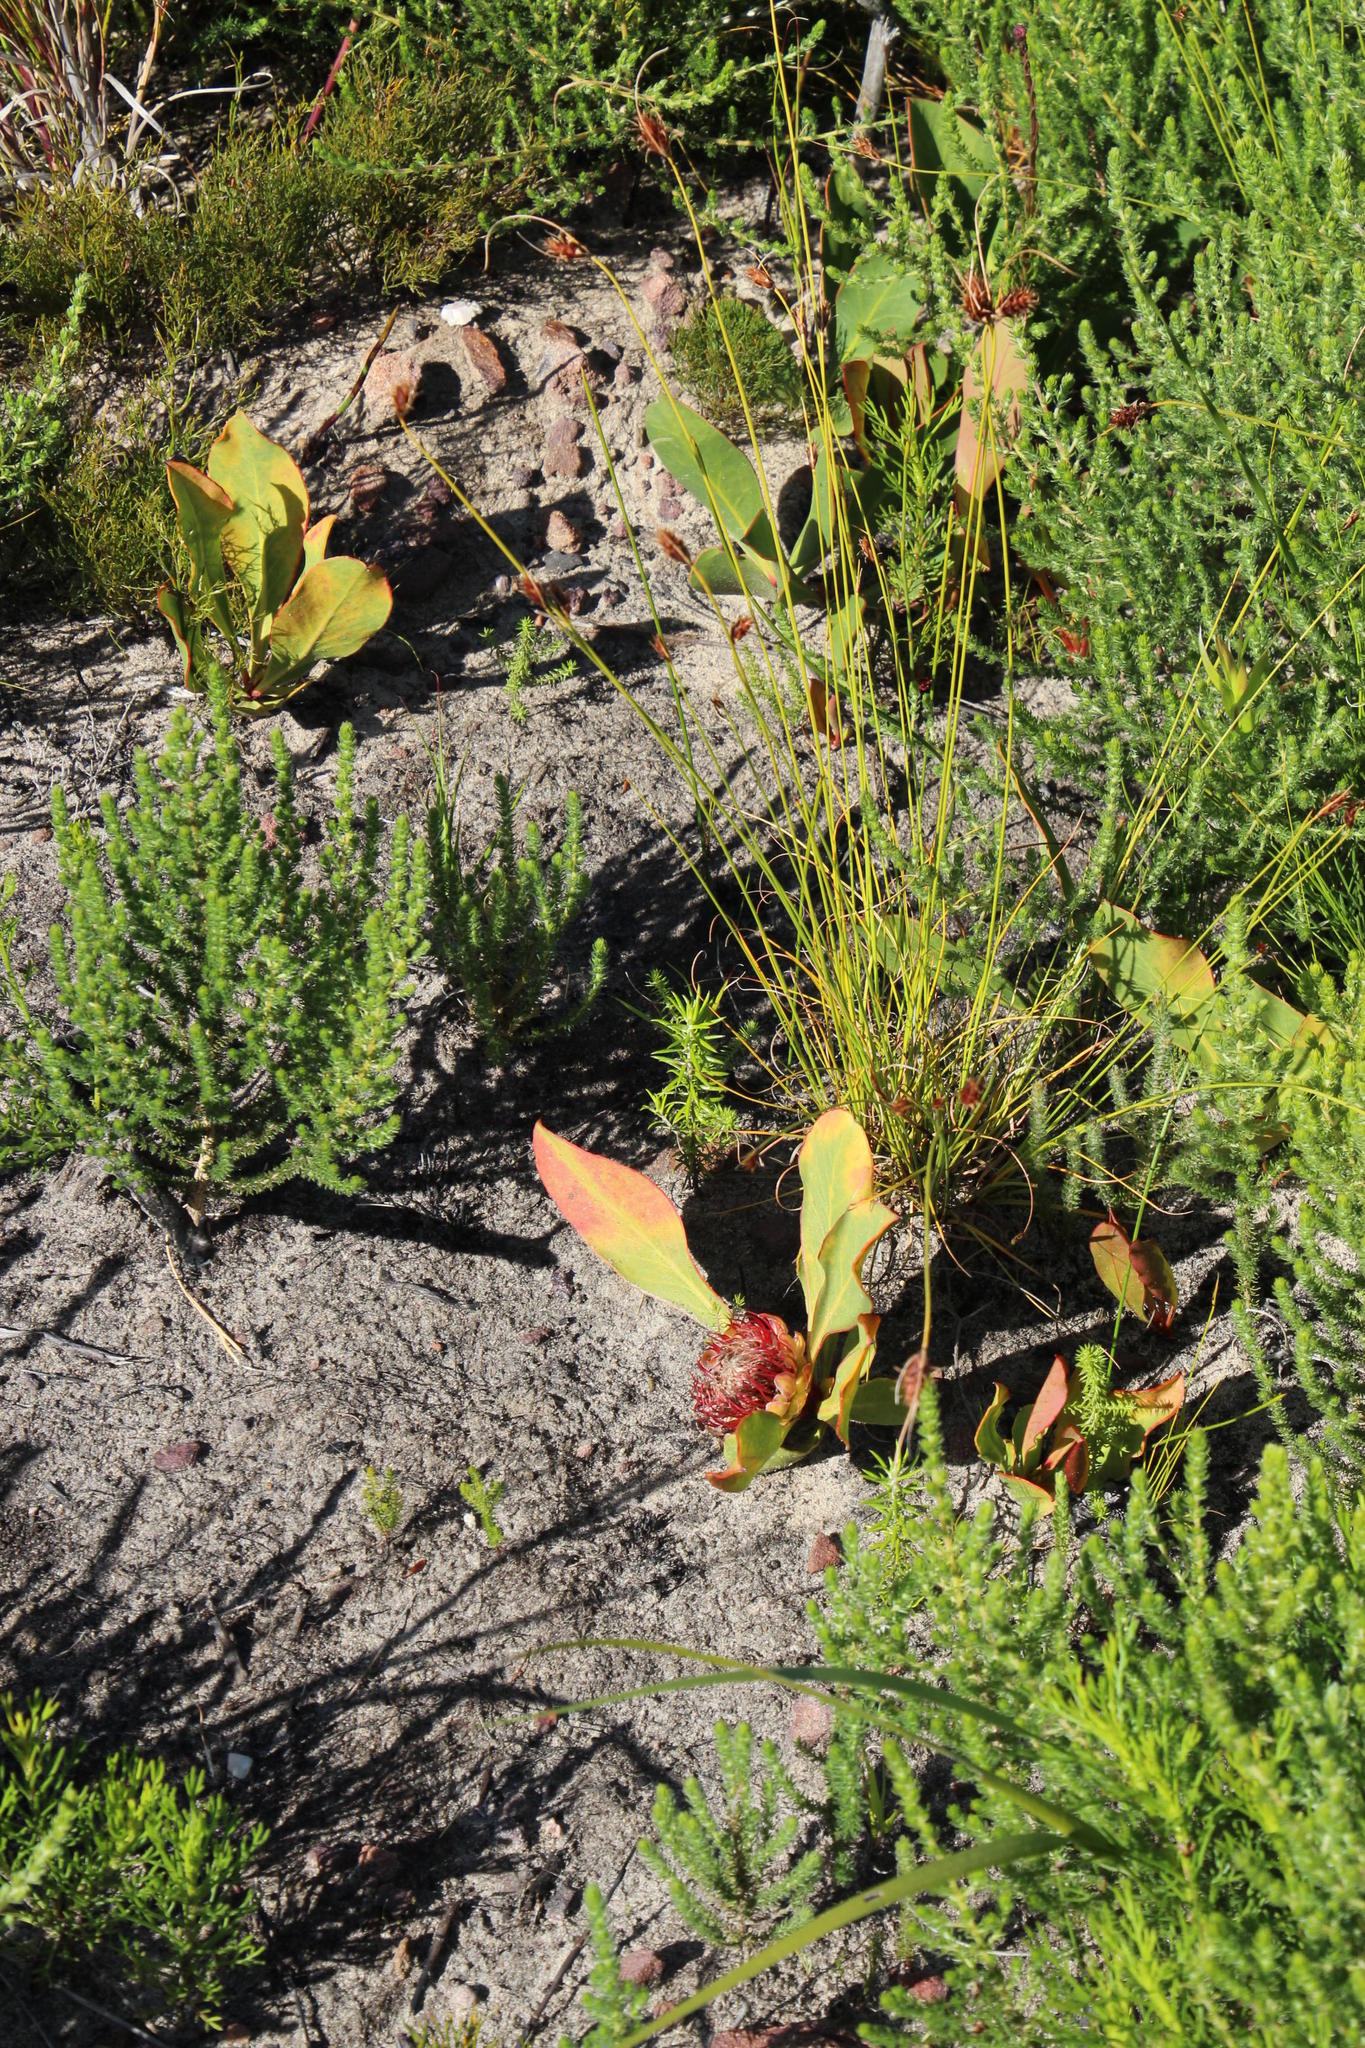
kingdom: Plantae
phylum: Tracheophyta
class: Magnoliopsida
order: Proteales
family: Proteaceae
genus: Protea
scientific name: Protea acaulos
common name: Common ground sugarbush
